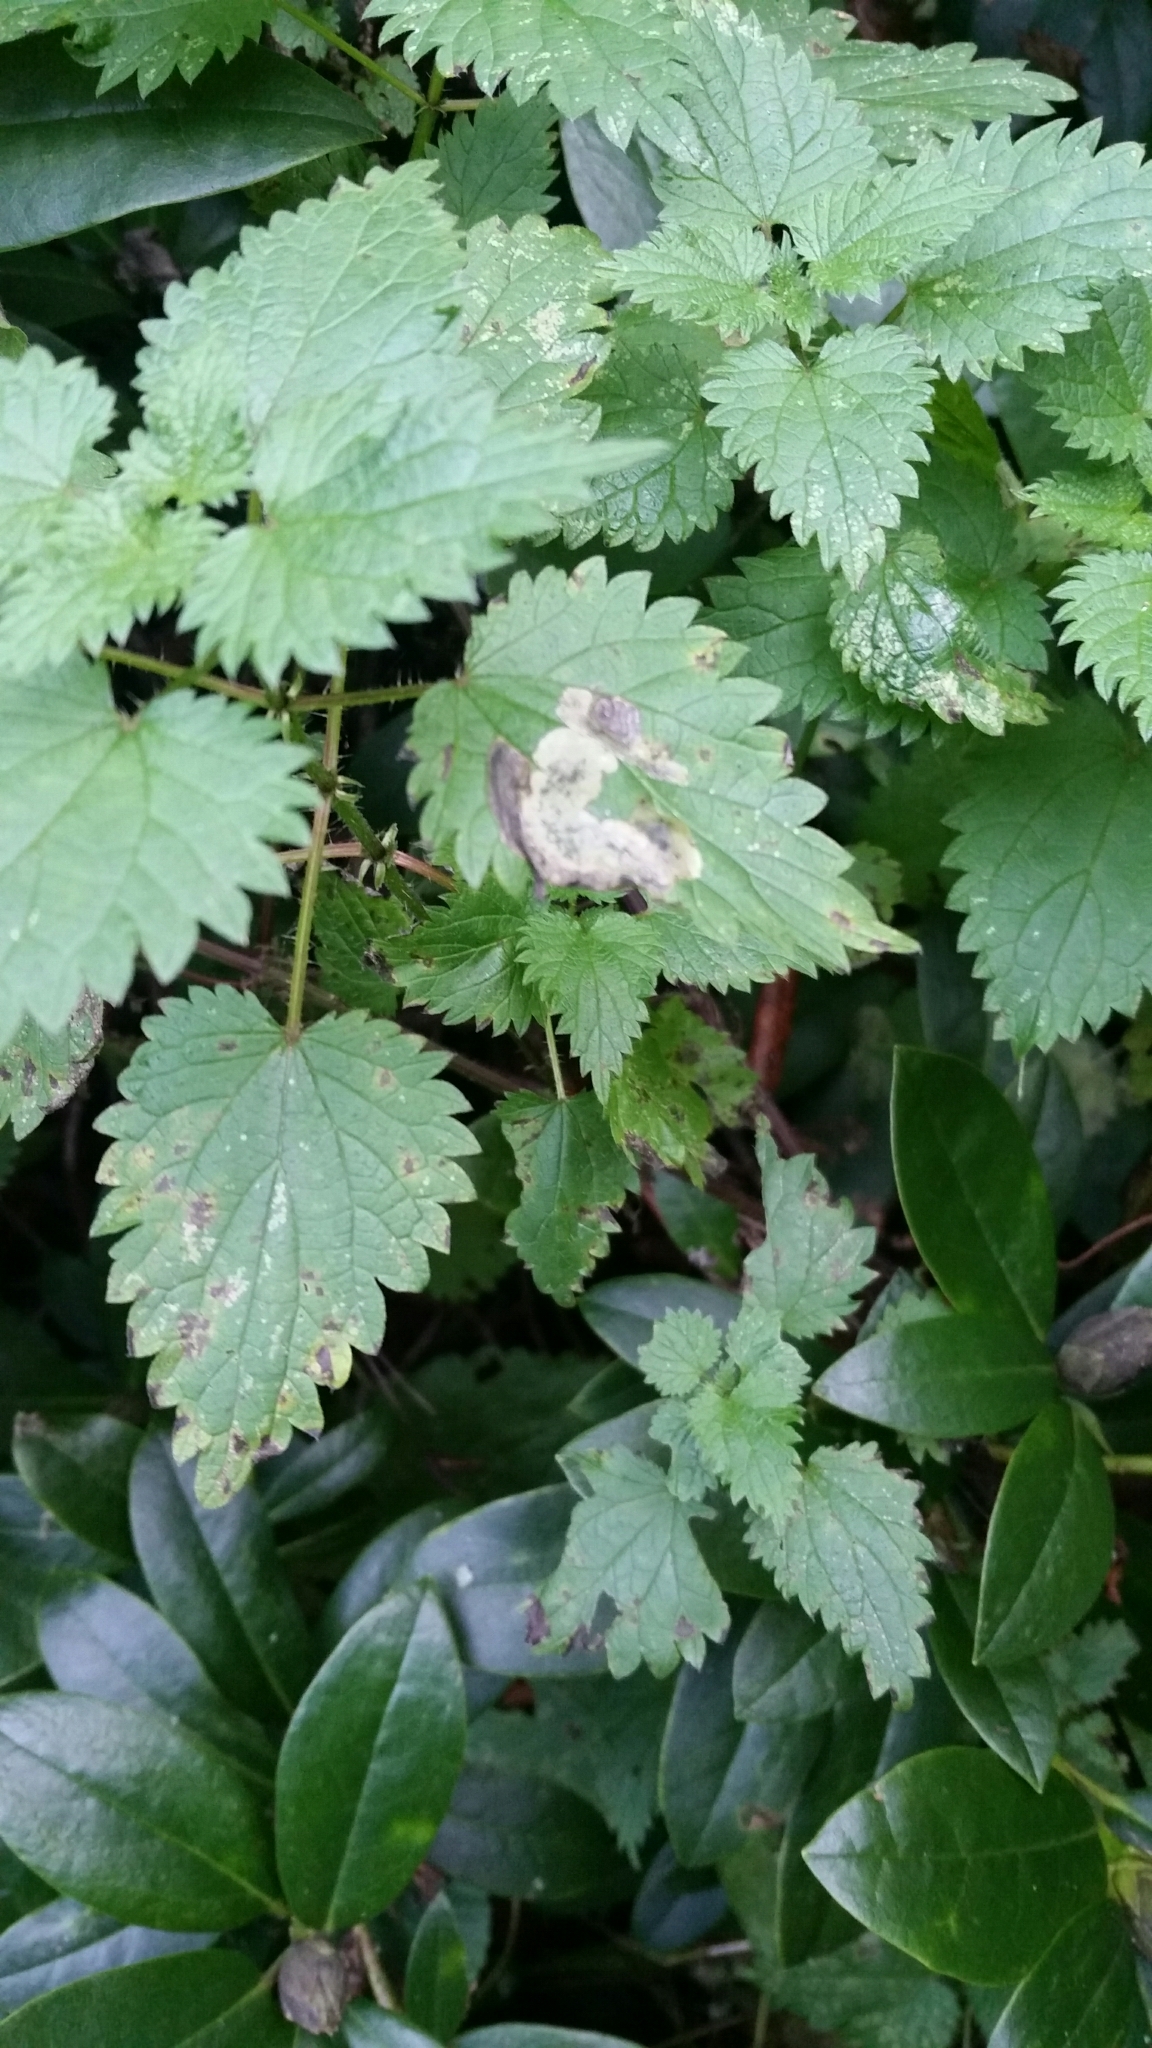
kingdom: Animalia
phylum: Arthropoda
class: Insecta
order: Diptera
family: Agromyzidae
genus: Agromyza
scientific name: Agromyza anthracina
